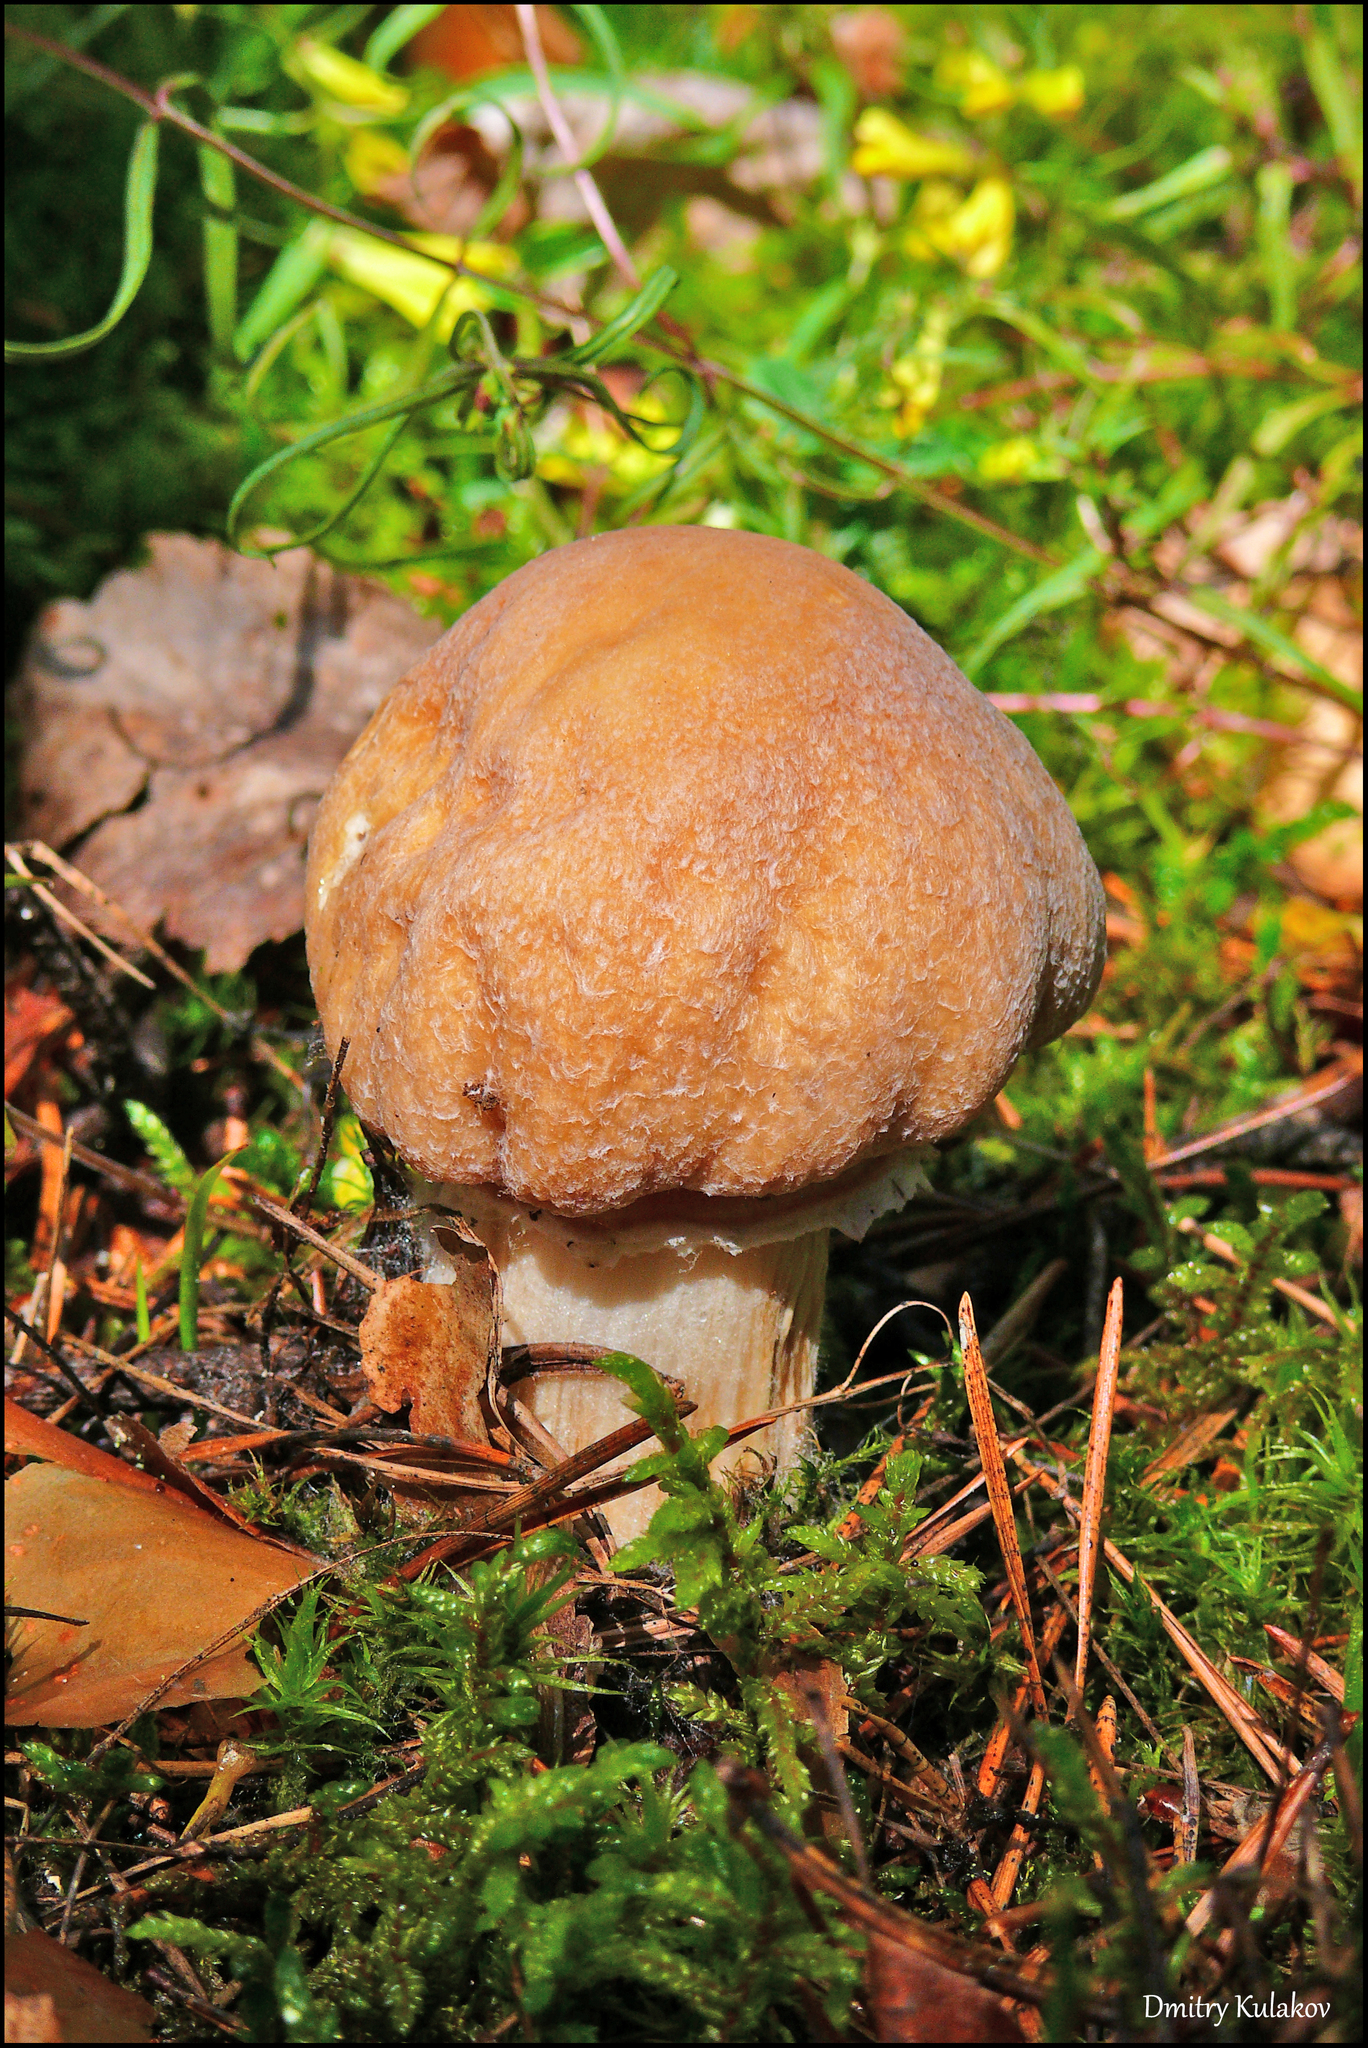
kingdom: Fungi
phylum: Basidiomycota
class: Agaricomycetes
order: Agaricales
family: Cortinariaceae
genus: Cortinarius
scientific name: Cortinarius caperatus
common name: The gypsy
